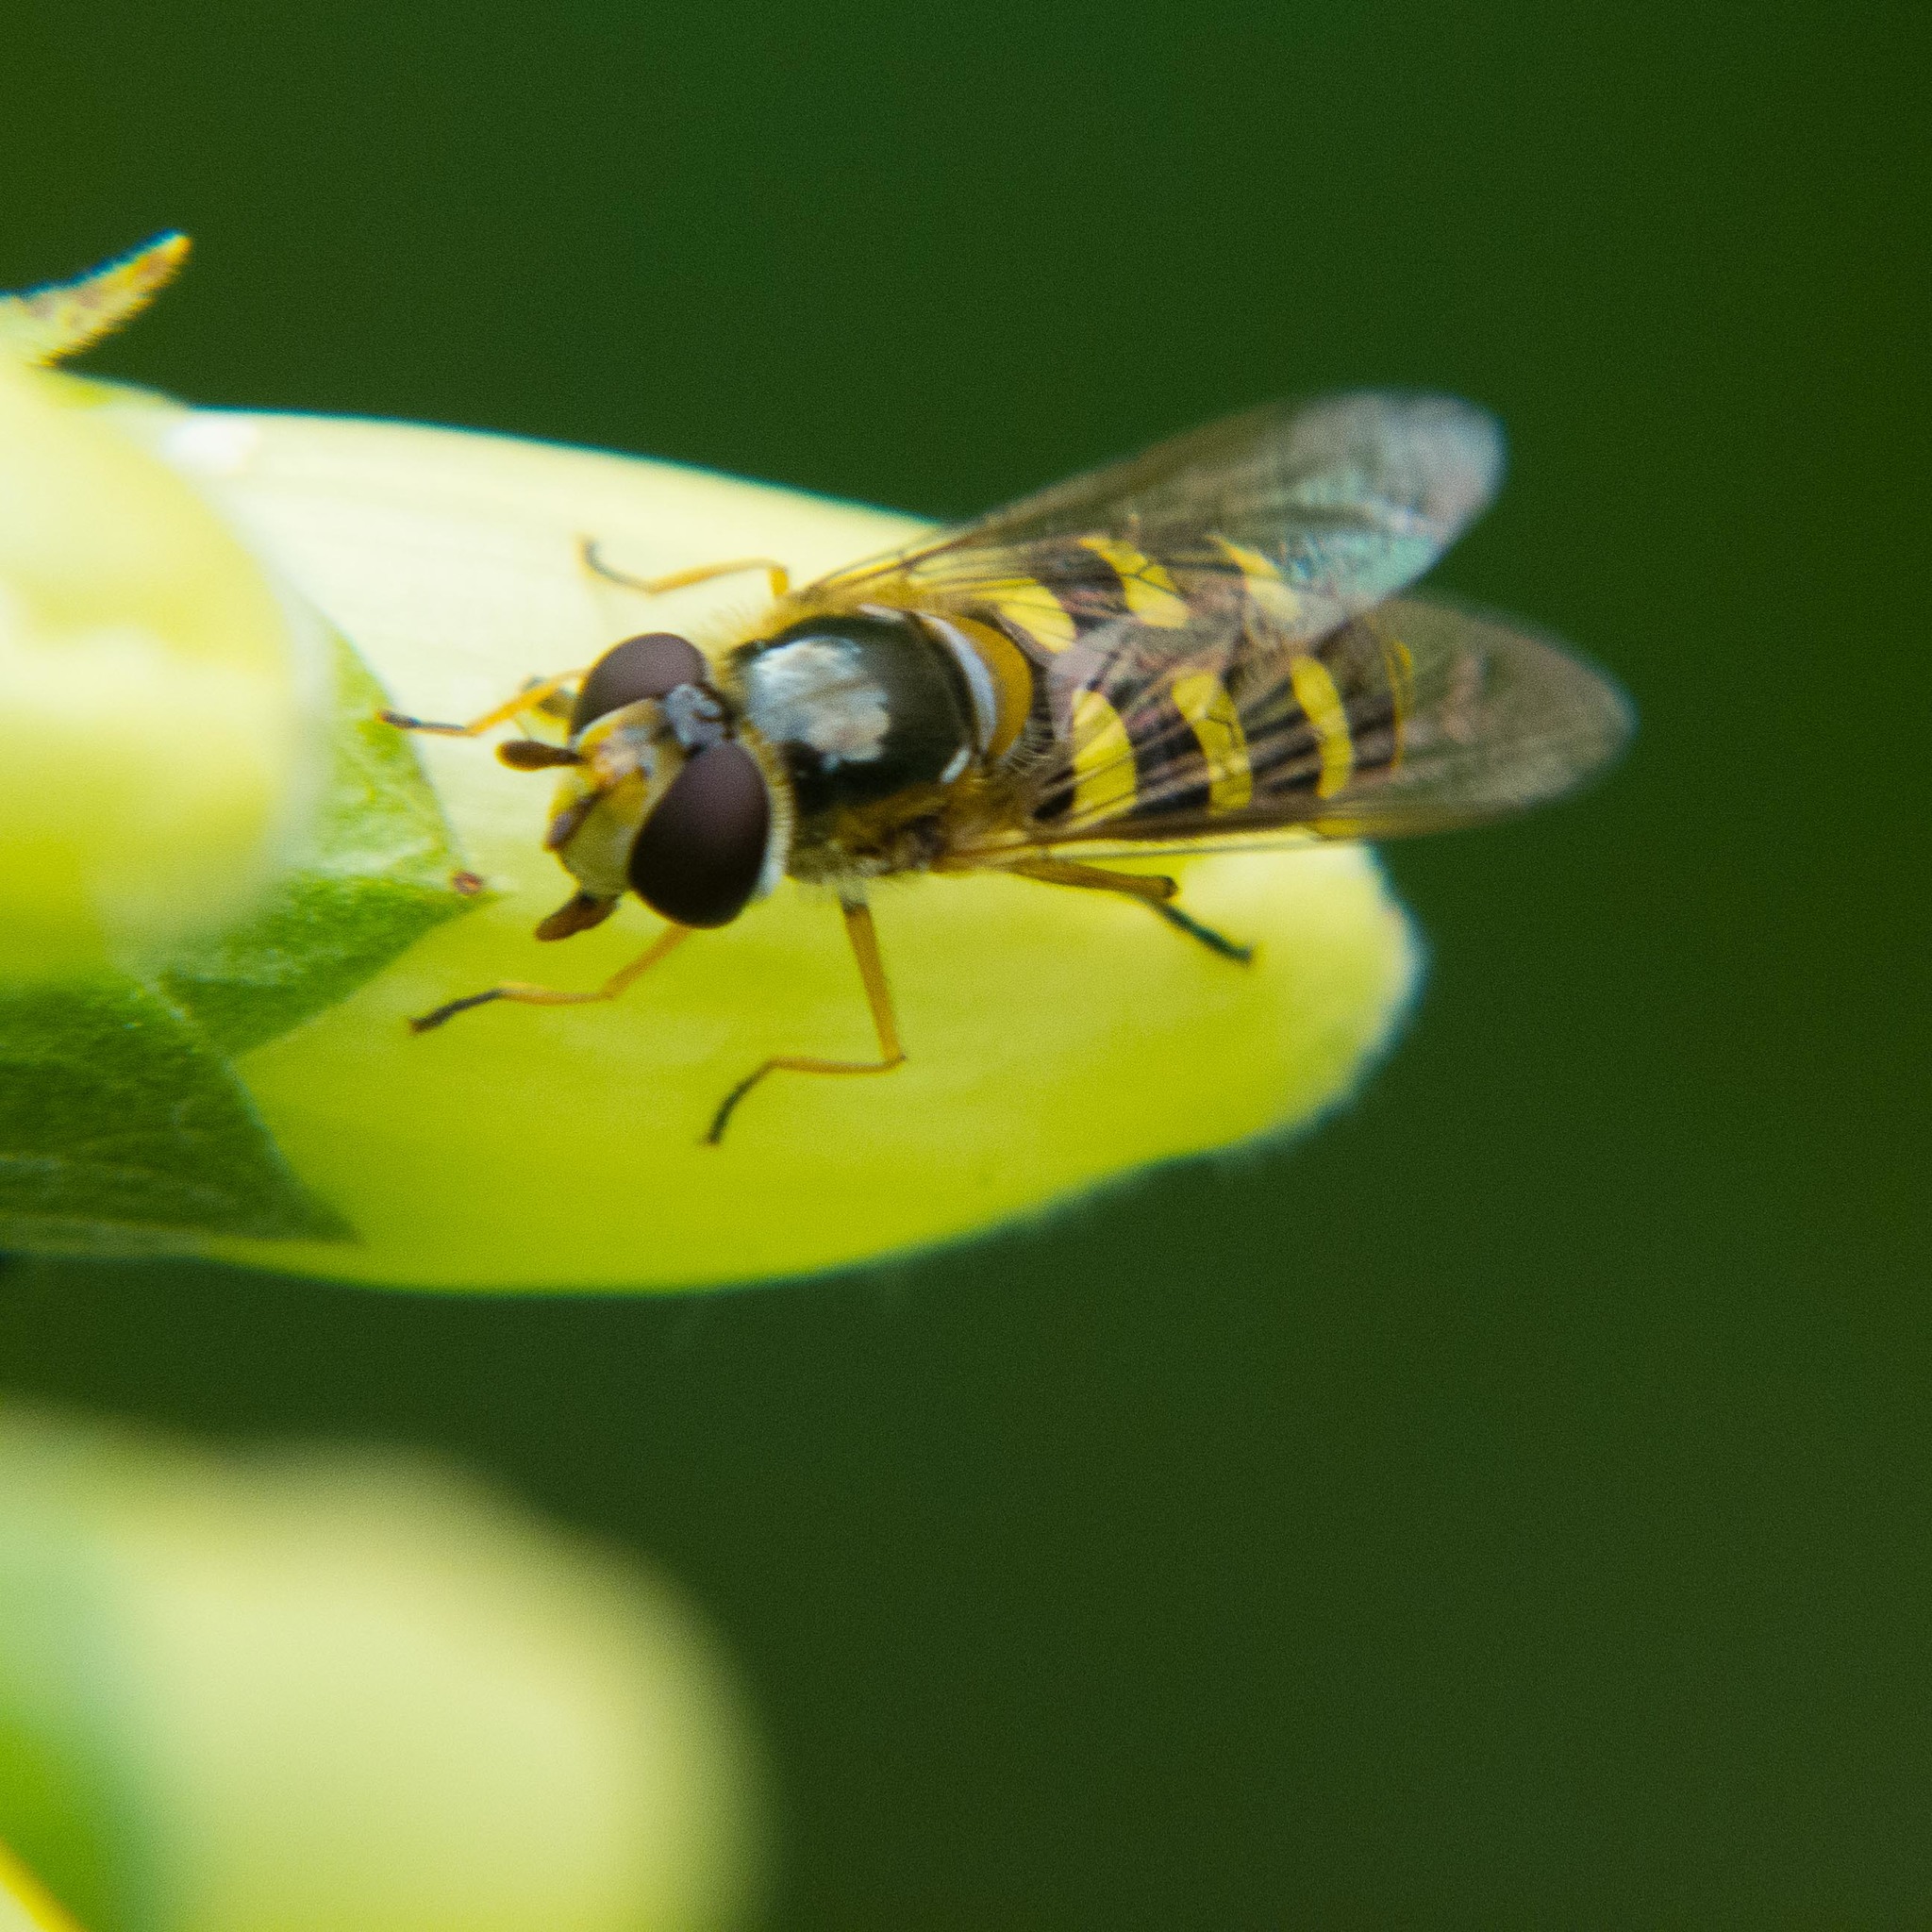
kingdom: Animalia
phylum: Arthropoda
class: Insecta
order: Diptera
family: Syrphidae
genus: Eupeodes
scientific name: Eupeodes luniger
